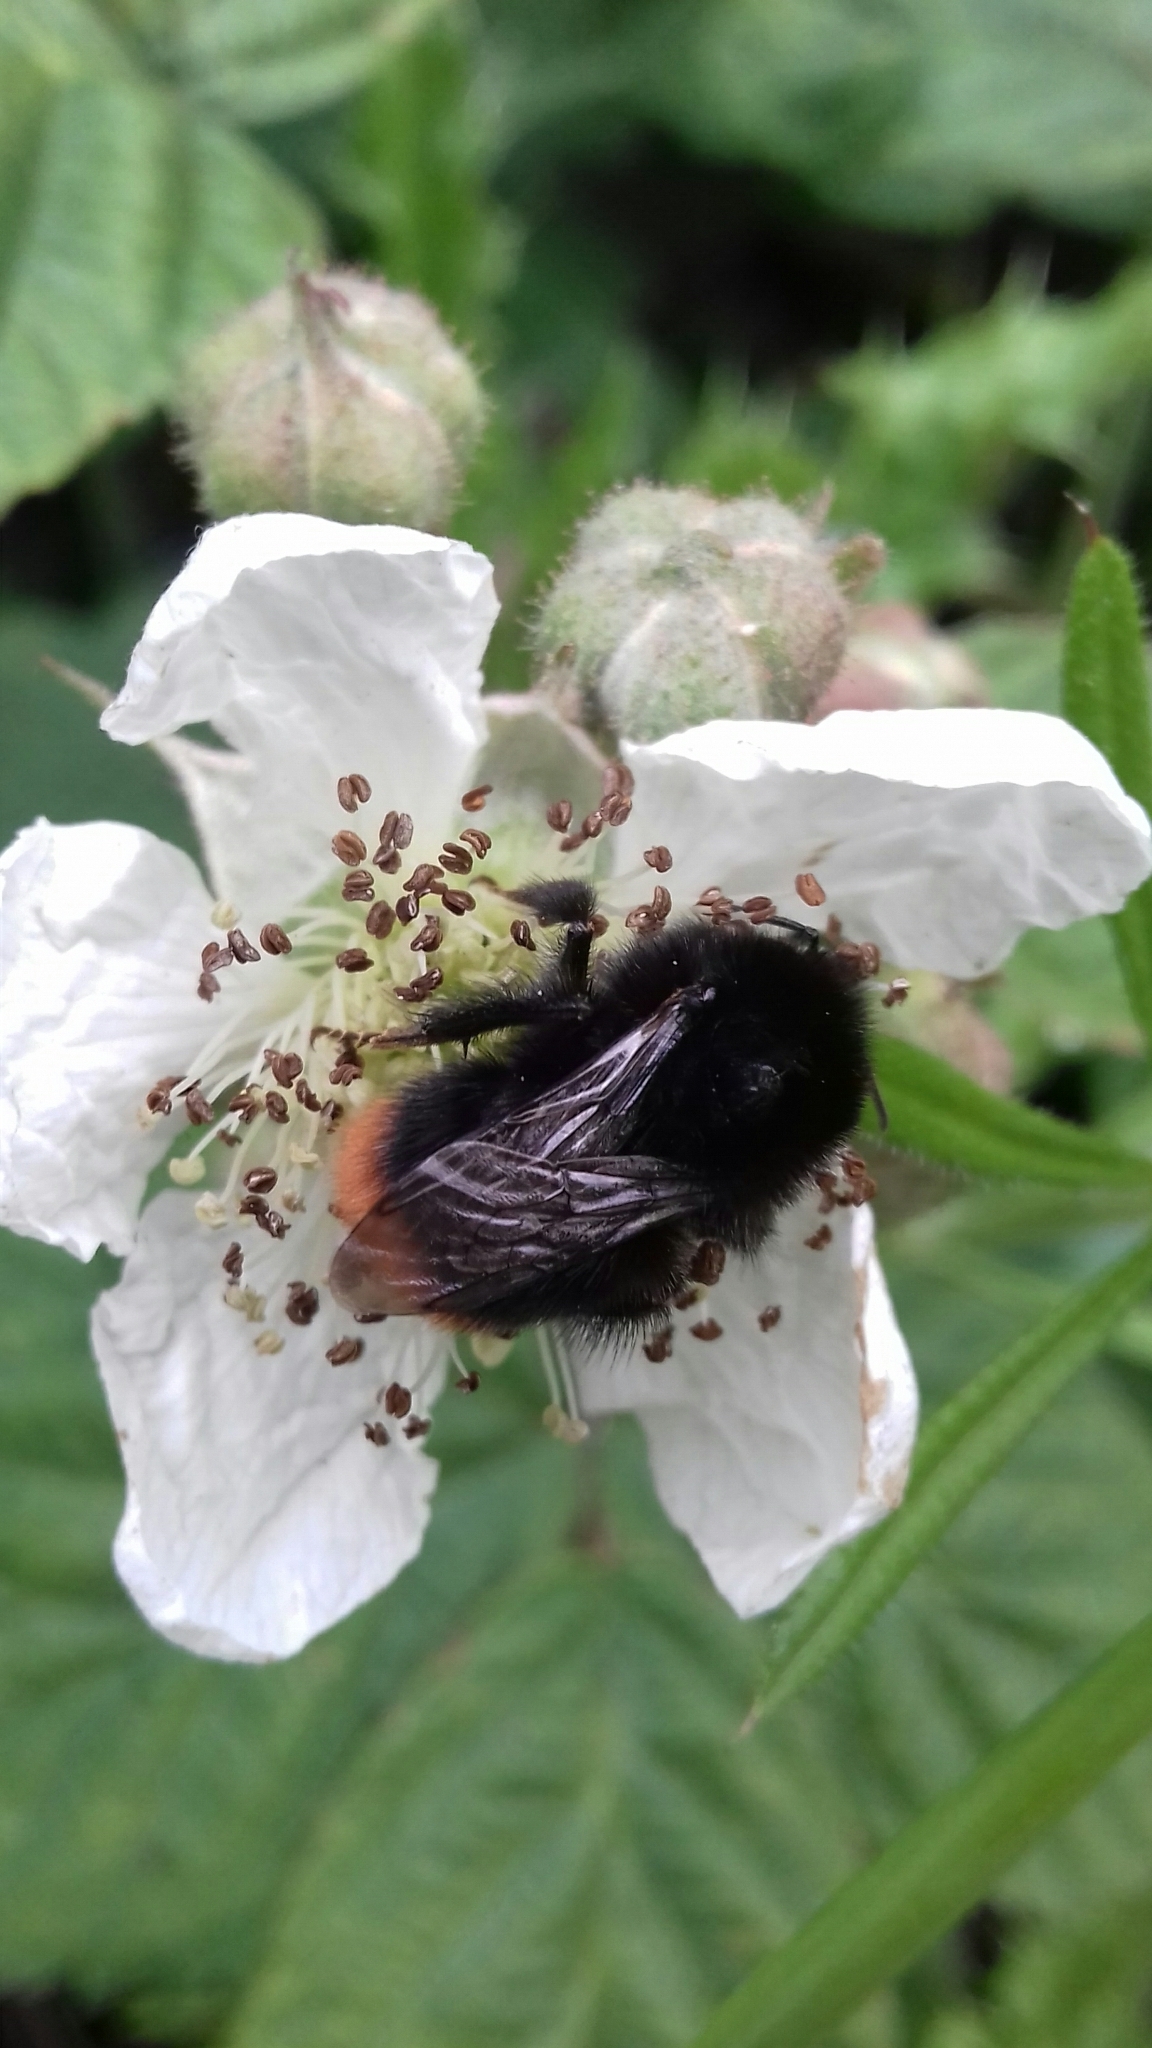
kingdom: Animalia
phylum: Arthropoda
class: Insecta
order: Hymenoptera
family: Apidae
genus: Bombus
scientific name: Bombus lapidarius
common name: Large red-tailed humble-bee
